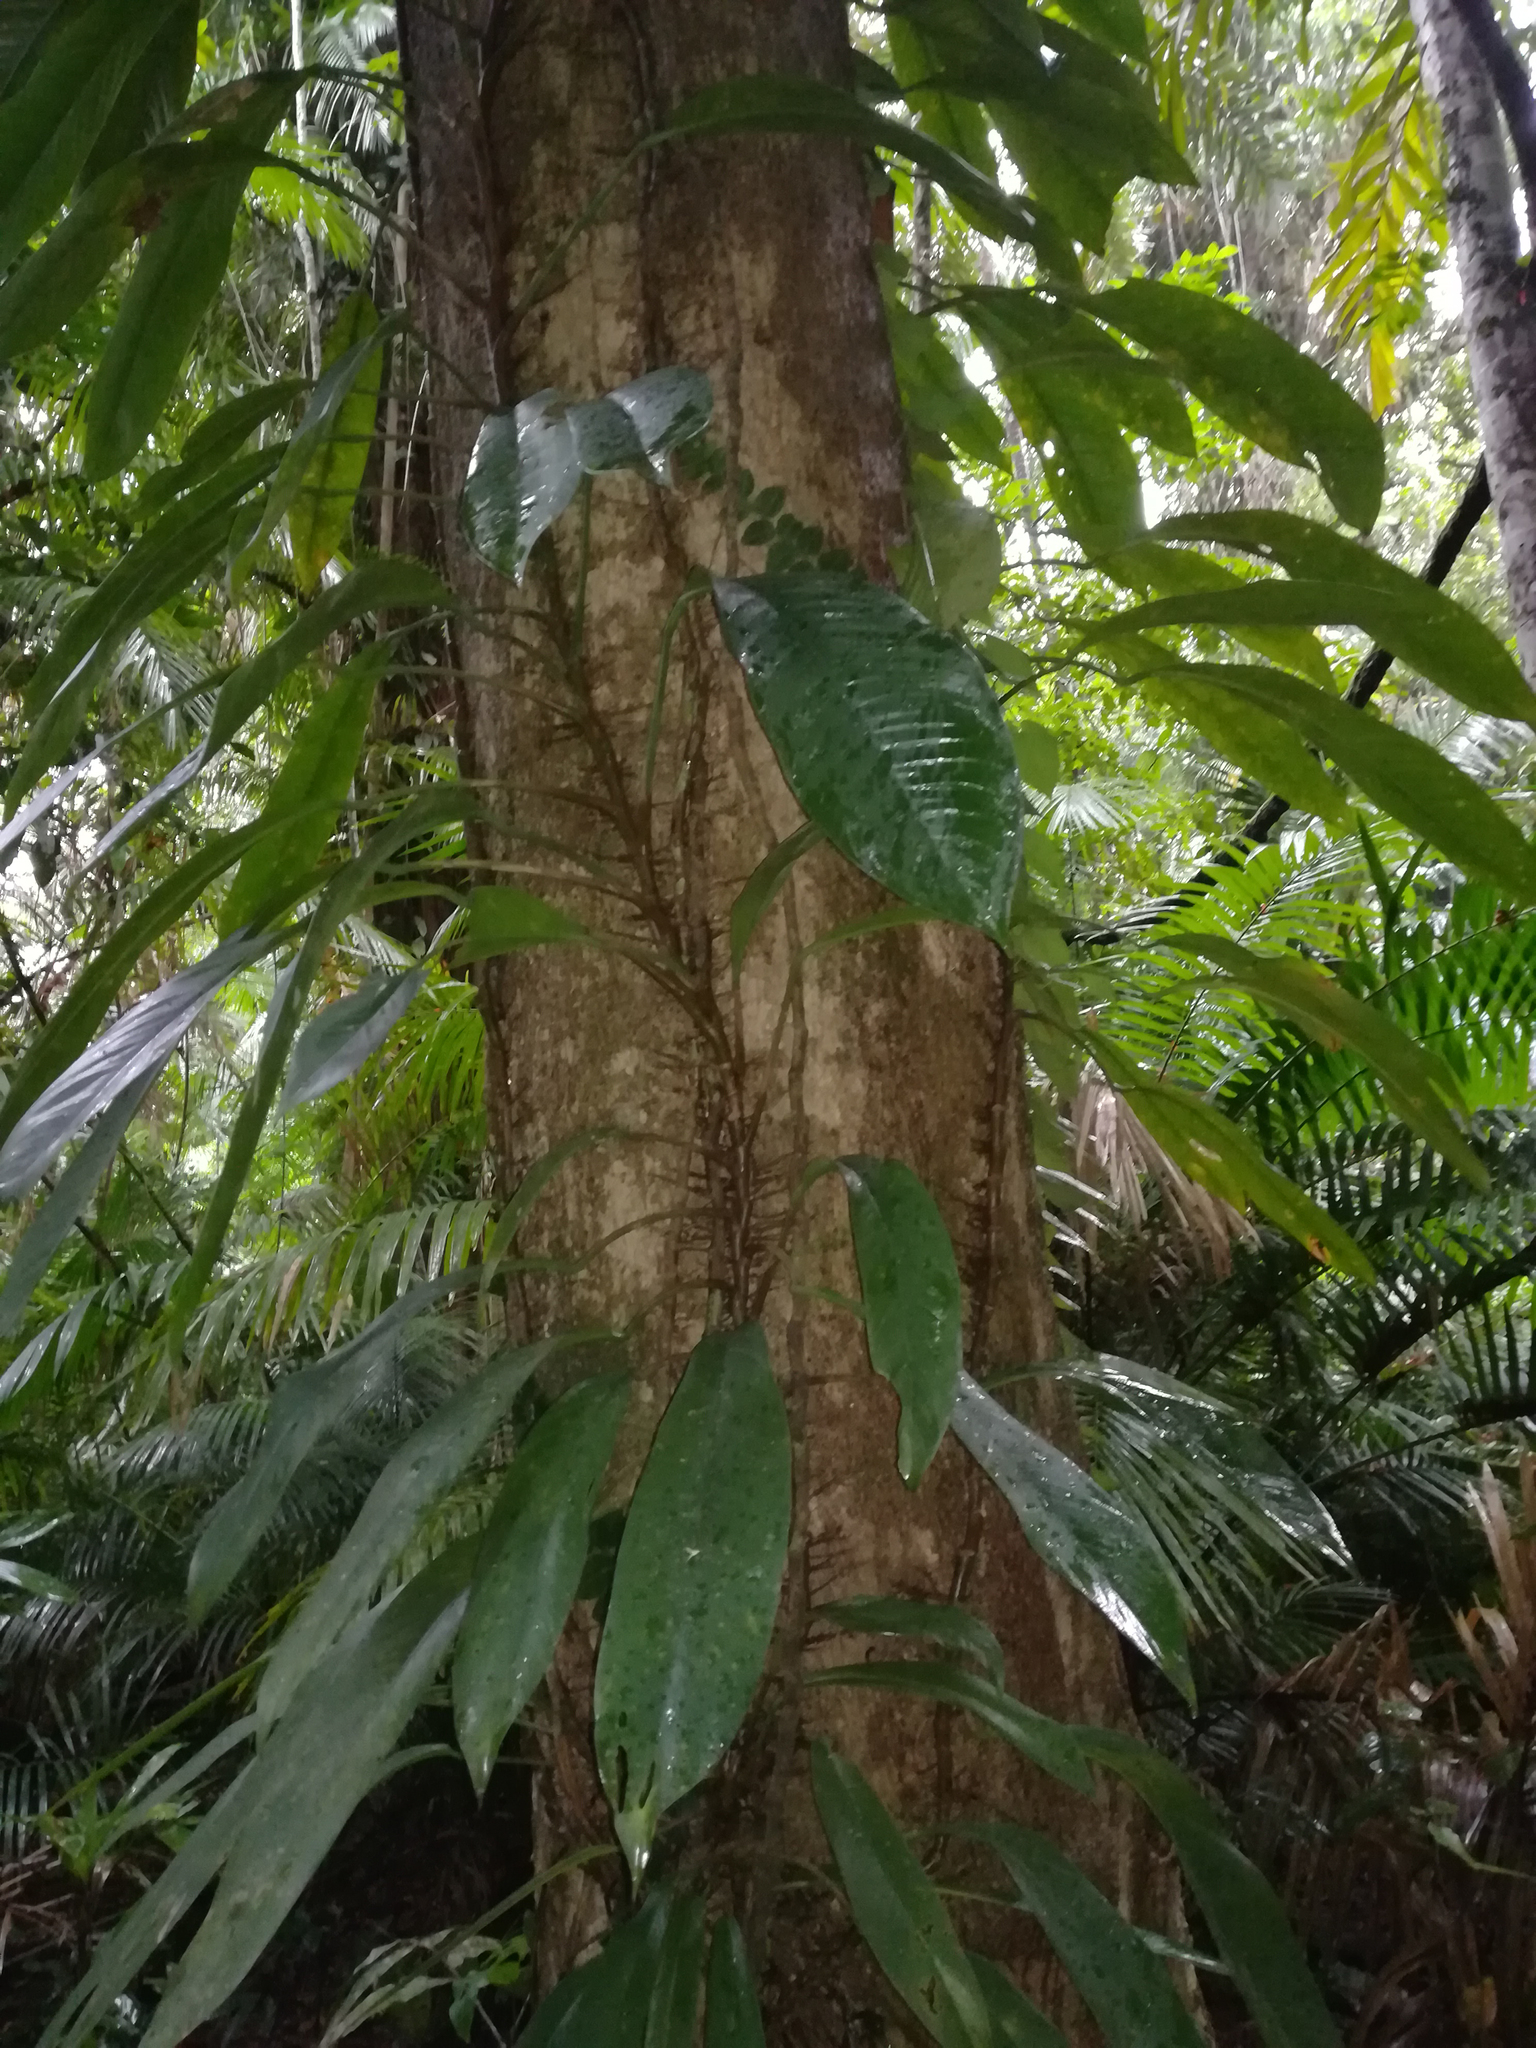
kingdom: Plantae
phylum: Tracheophyta
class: Liliopsida
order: Alismatales
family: Araceae
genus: Rhaphidophora
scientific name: Rhaphidophora australasica
